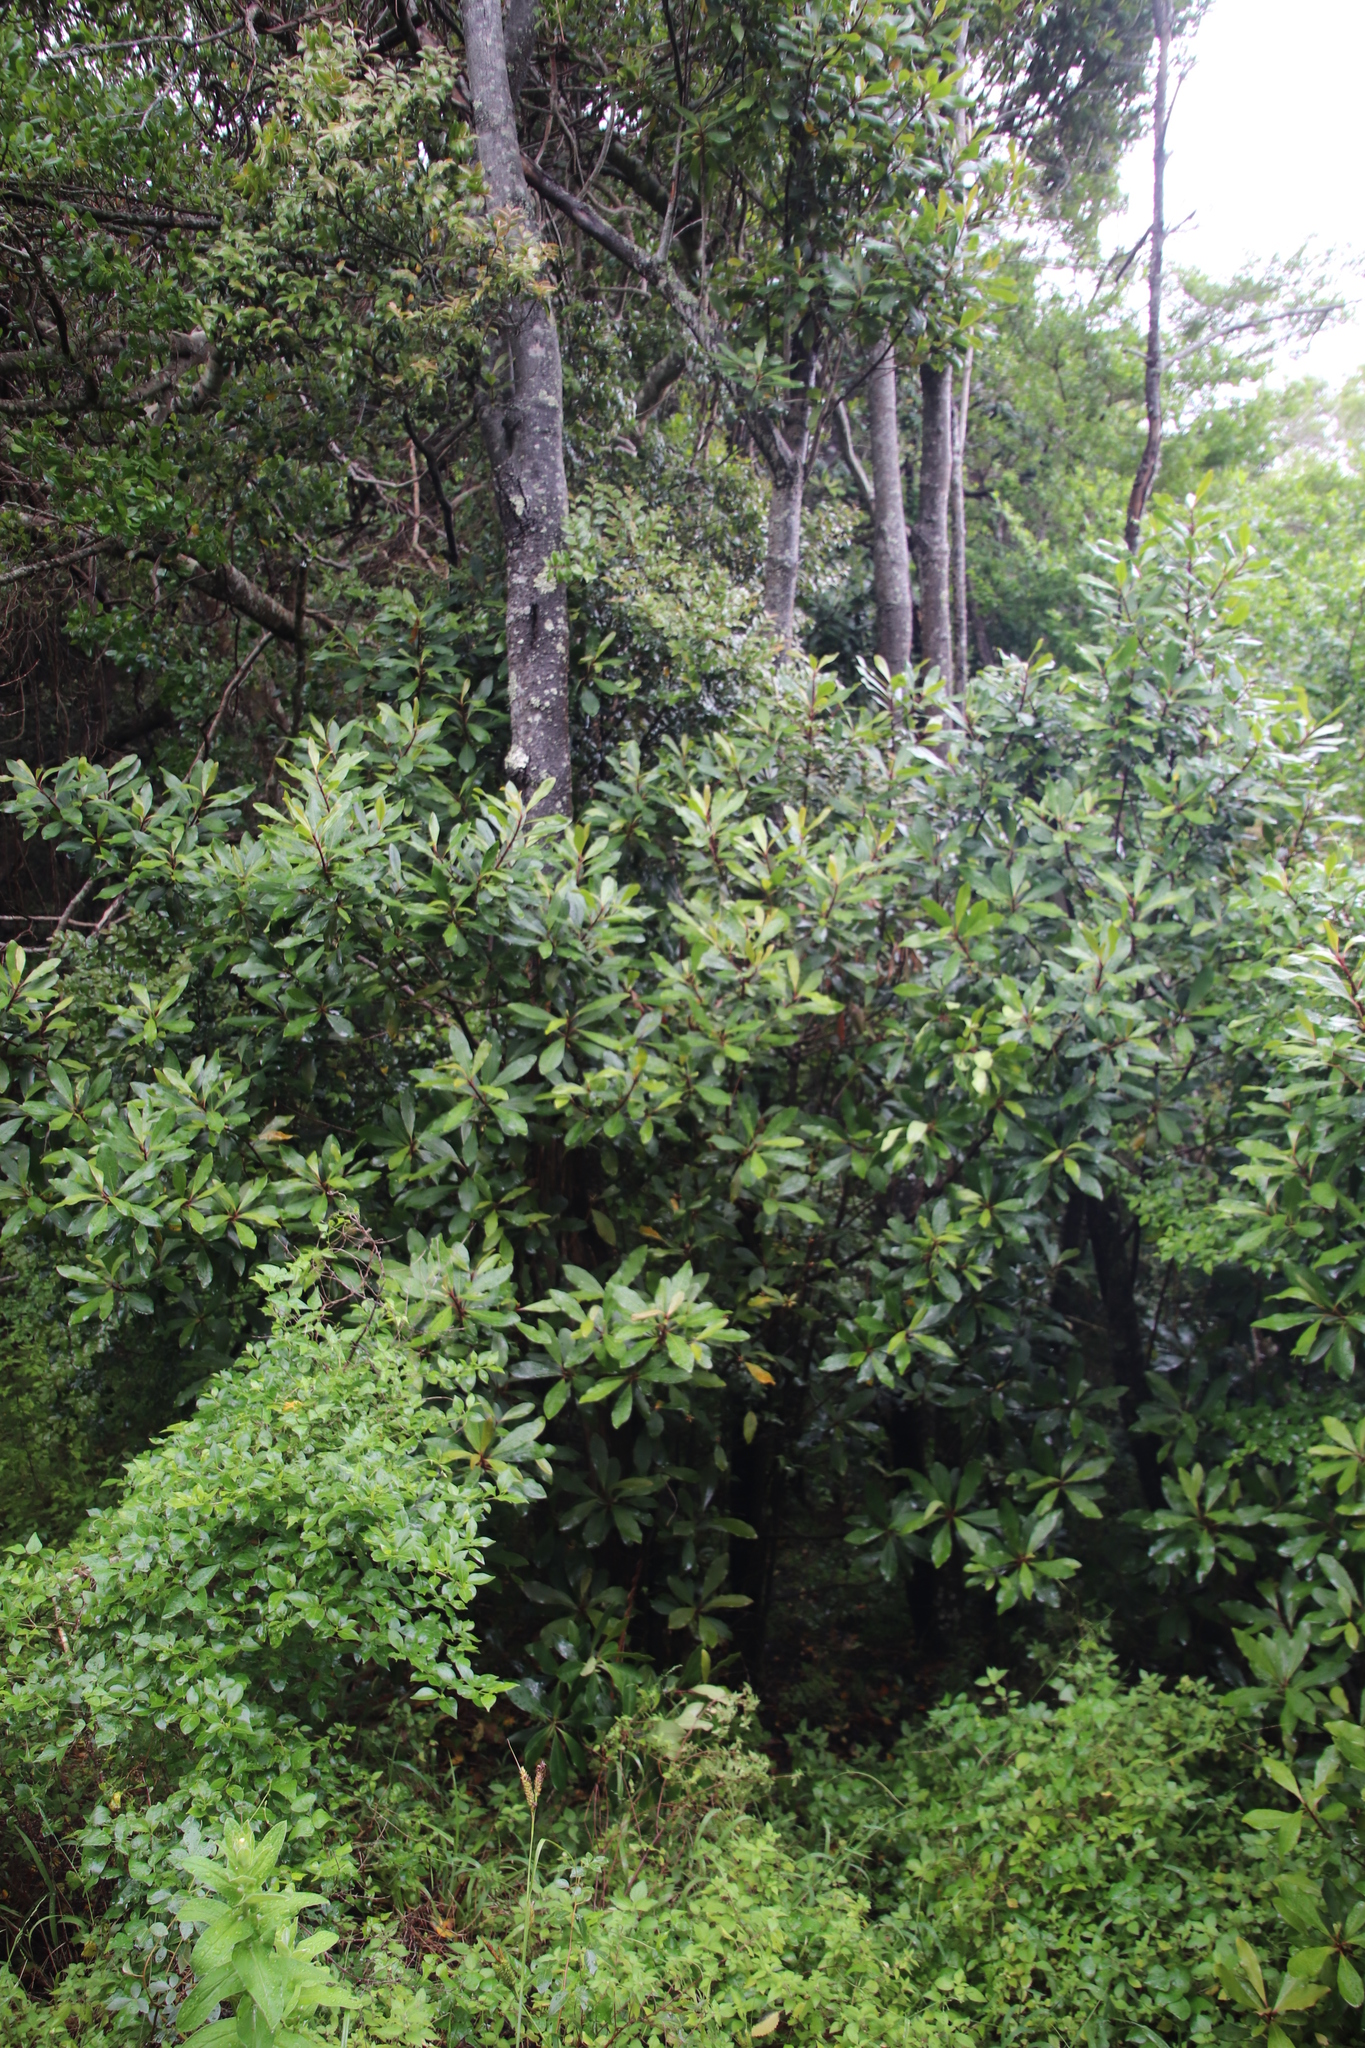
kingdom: Plantae
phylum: Tracheophyta
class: Magnoliopsida
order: Ericales
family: Primulaceae
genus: Myrsine
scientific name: Myrsine melanophloeos
